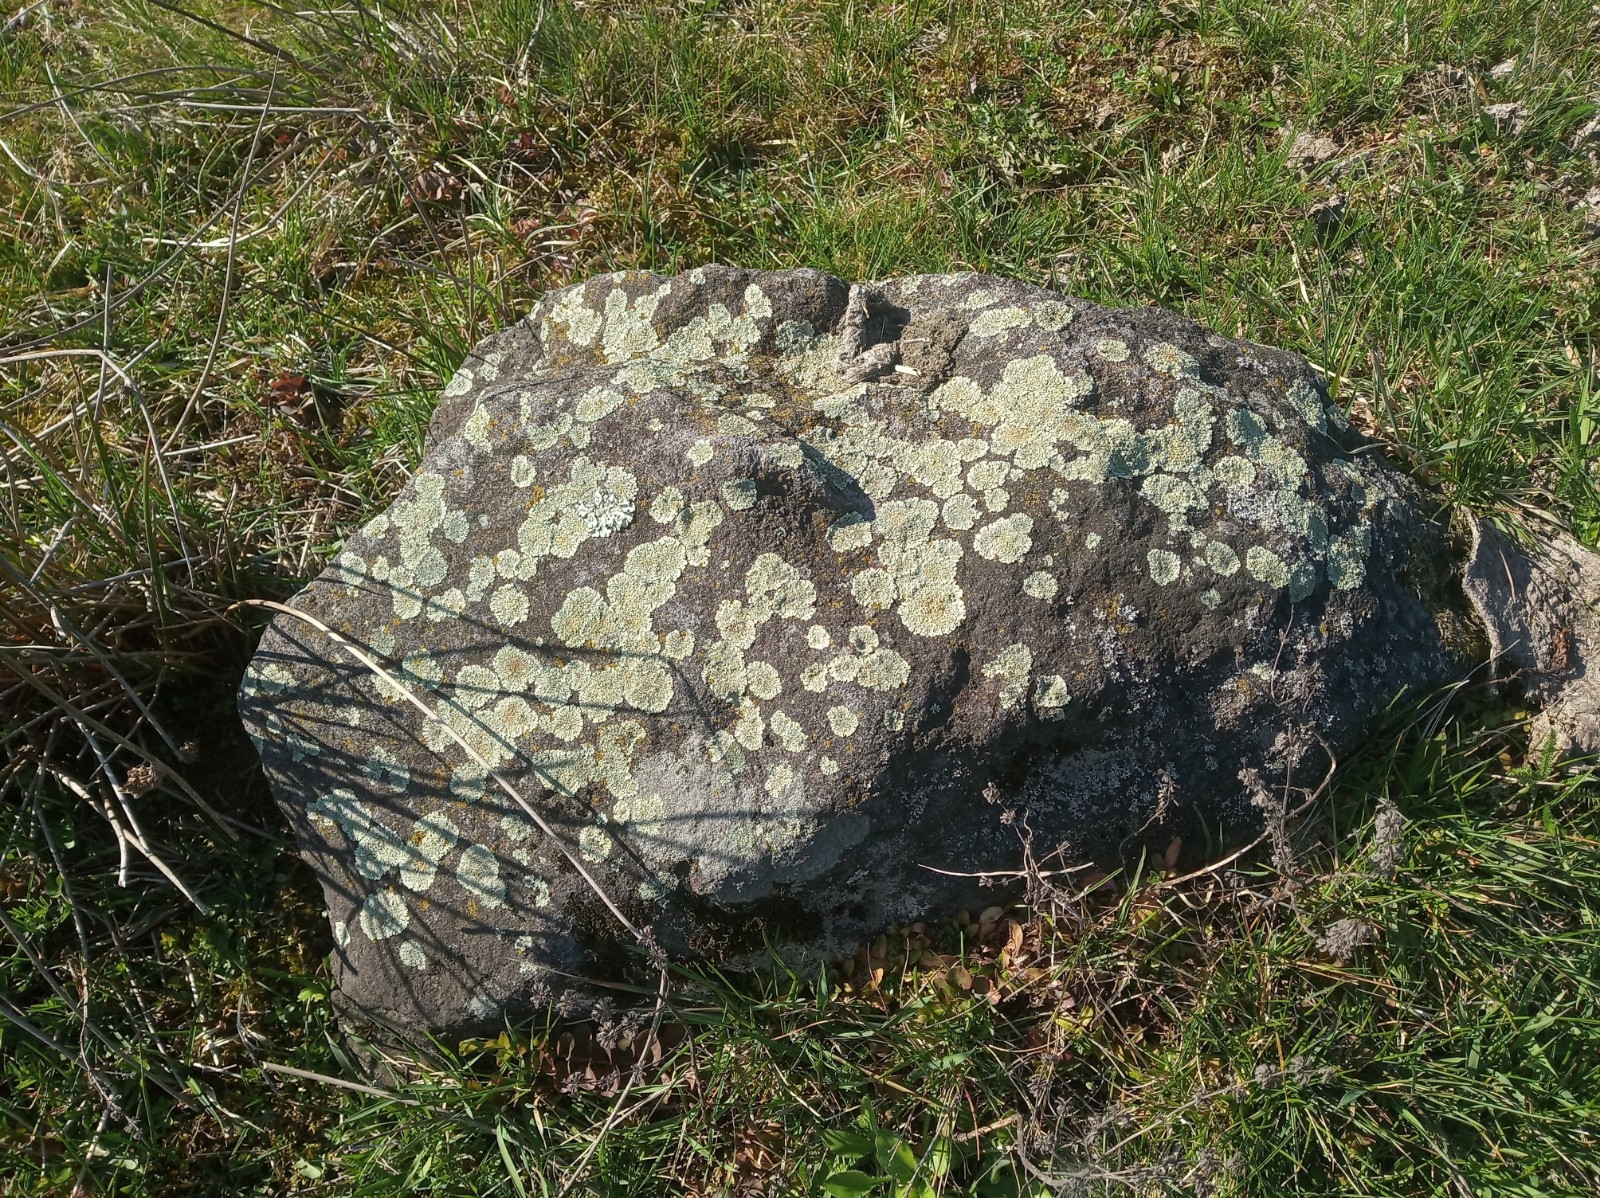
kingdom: Fungi
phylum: Ascomycota
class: Lecanoromycetes
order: Lecanorales
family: Lecanoraceae
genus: Protoparmeliopsis
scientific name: Protoparmeliopsis muralis
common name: Stonewall rim lichen
